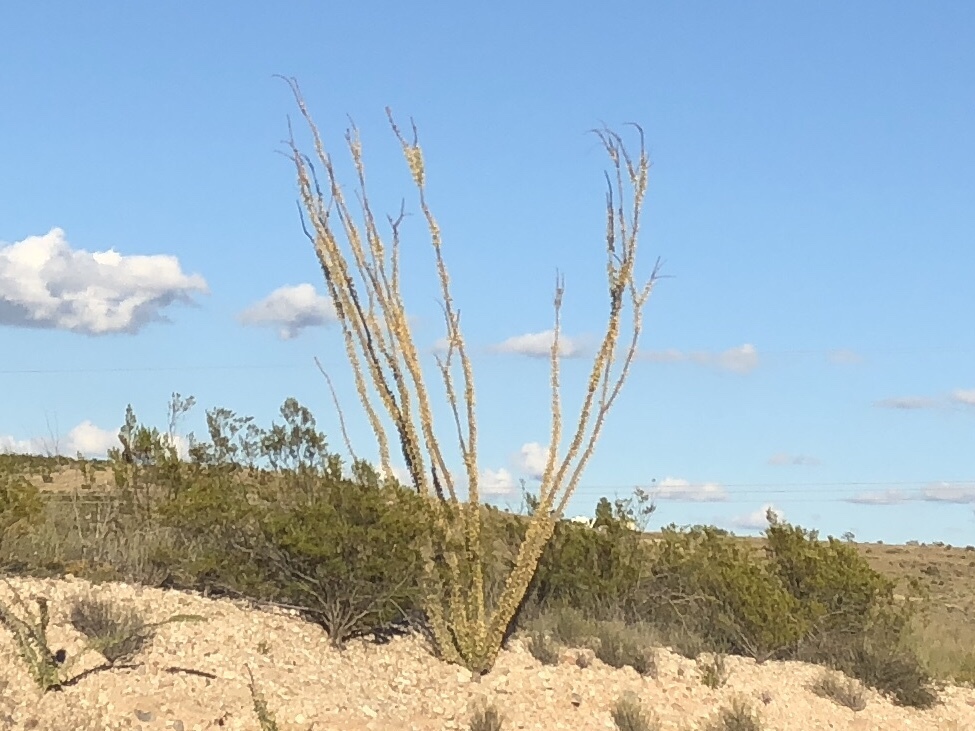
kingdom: Plantae
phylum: Tracheophyta
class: Magnoliopsida
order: Ericales
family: Fouquieriaceae
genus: Fouquieria
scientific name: Fouquieria splendens
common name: Vine-cactus
